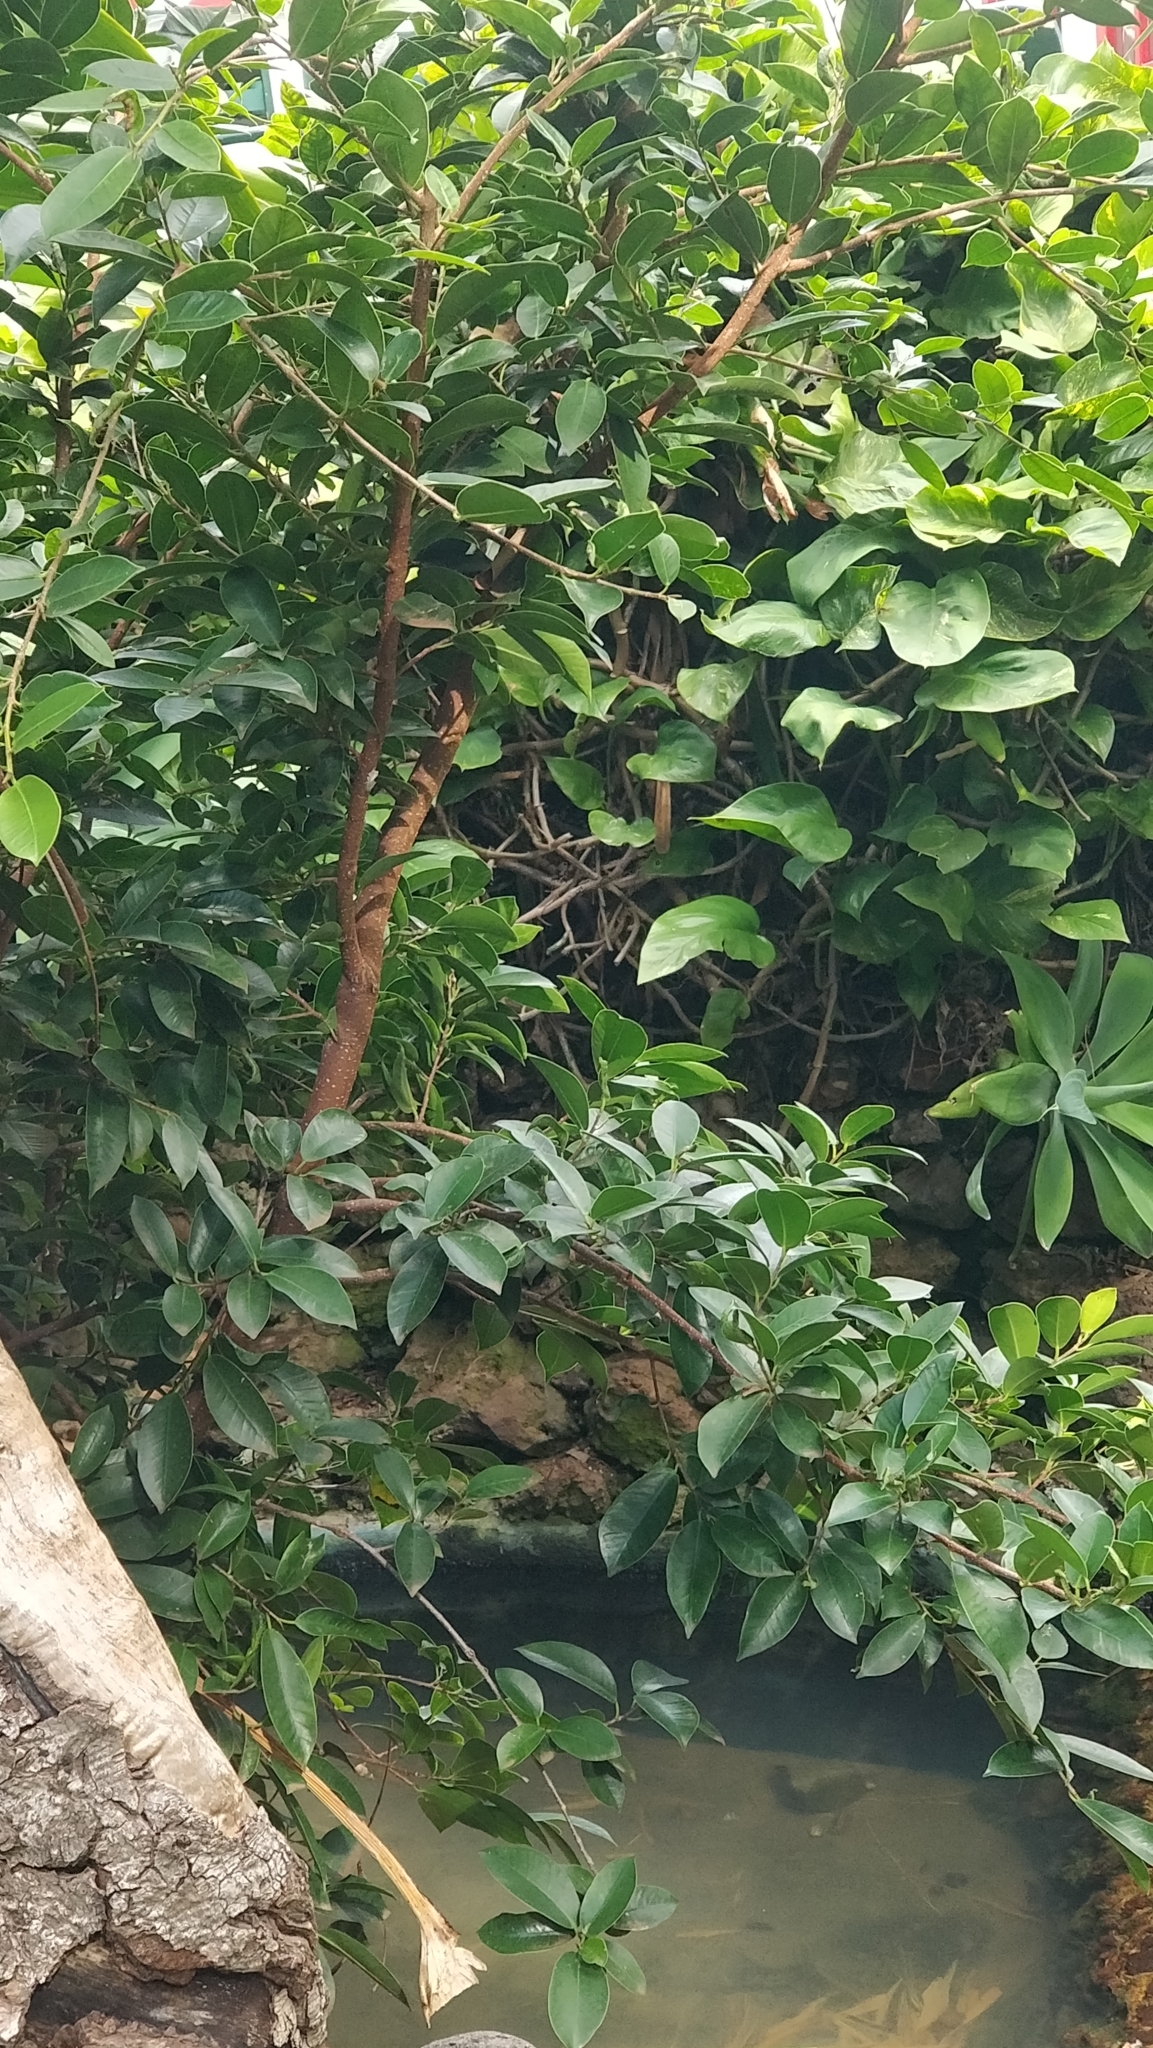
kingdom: Plantae
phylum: Tracheophyta
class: Magnoliopsida
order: Rosales
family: Moraceae
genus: Ficus
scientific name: Ficus benjamina
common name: Weeping fig
